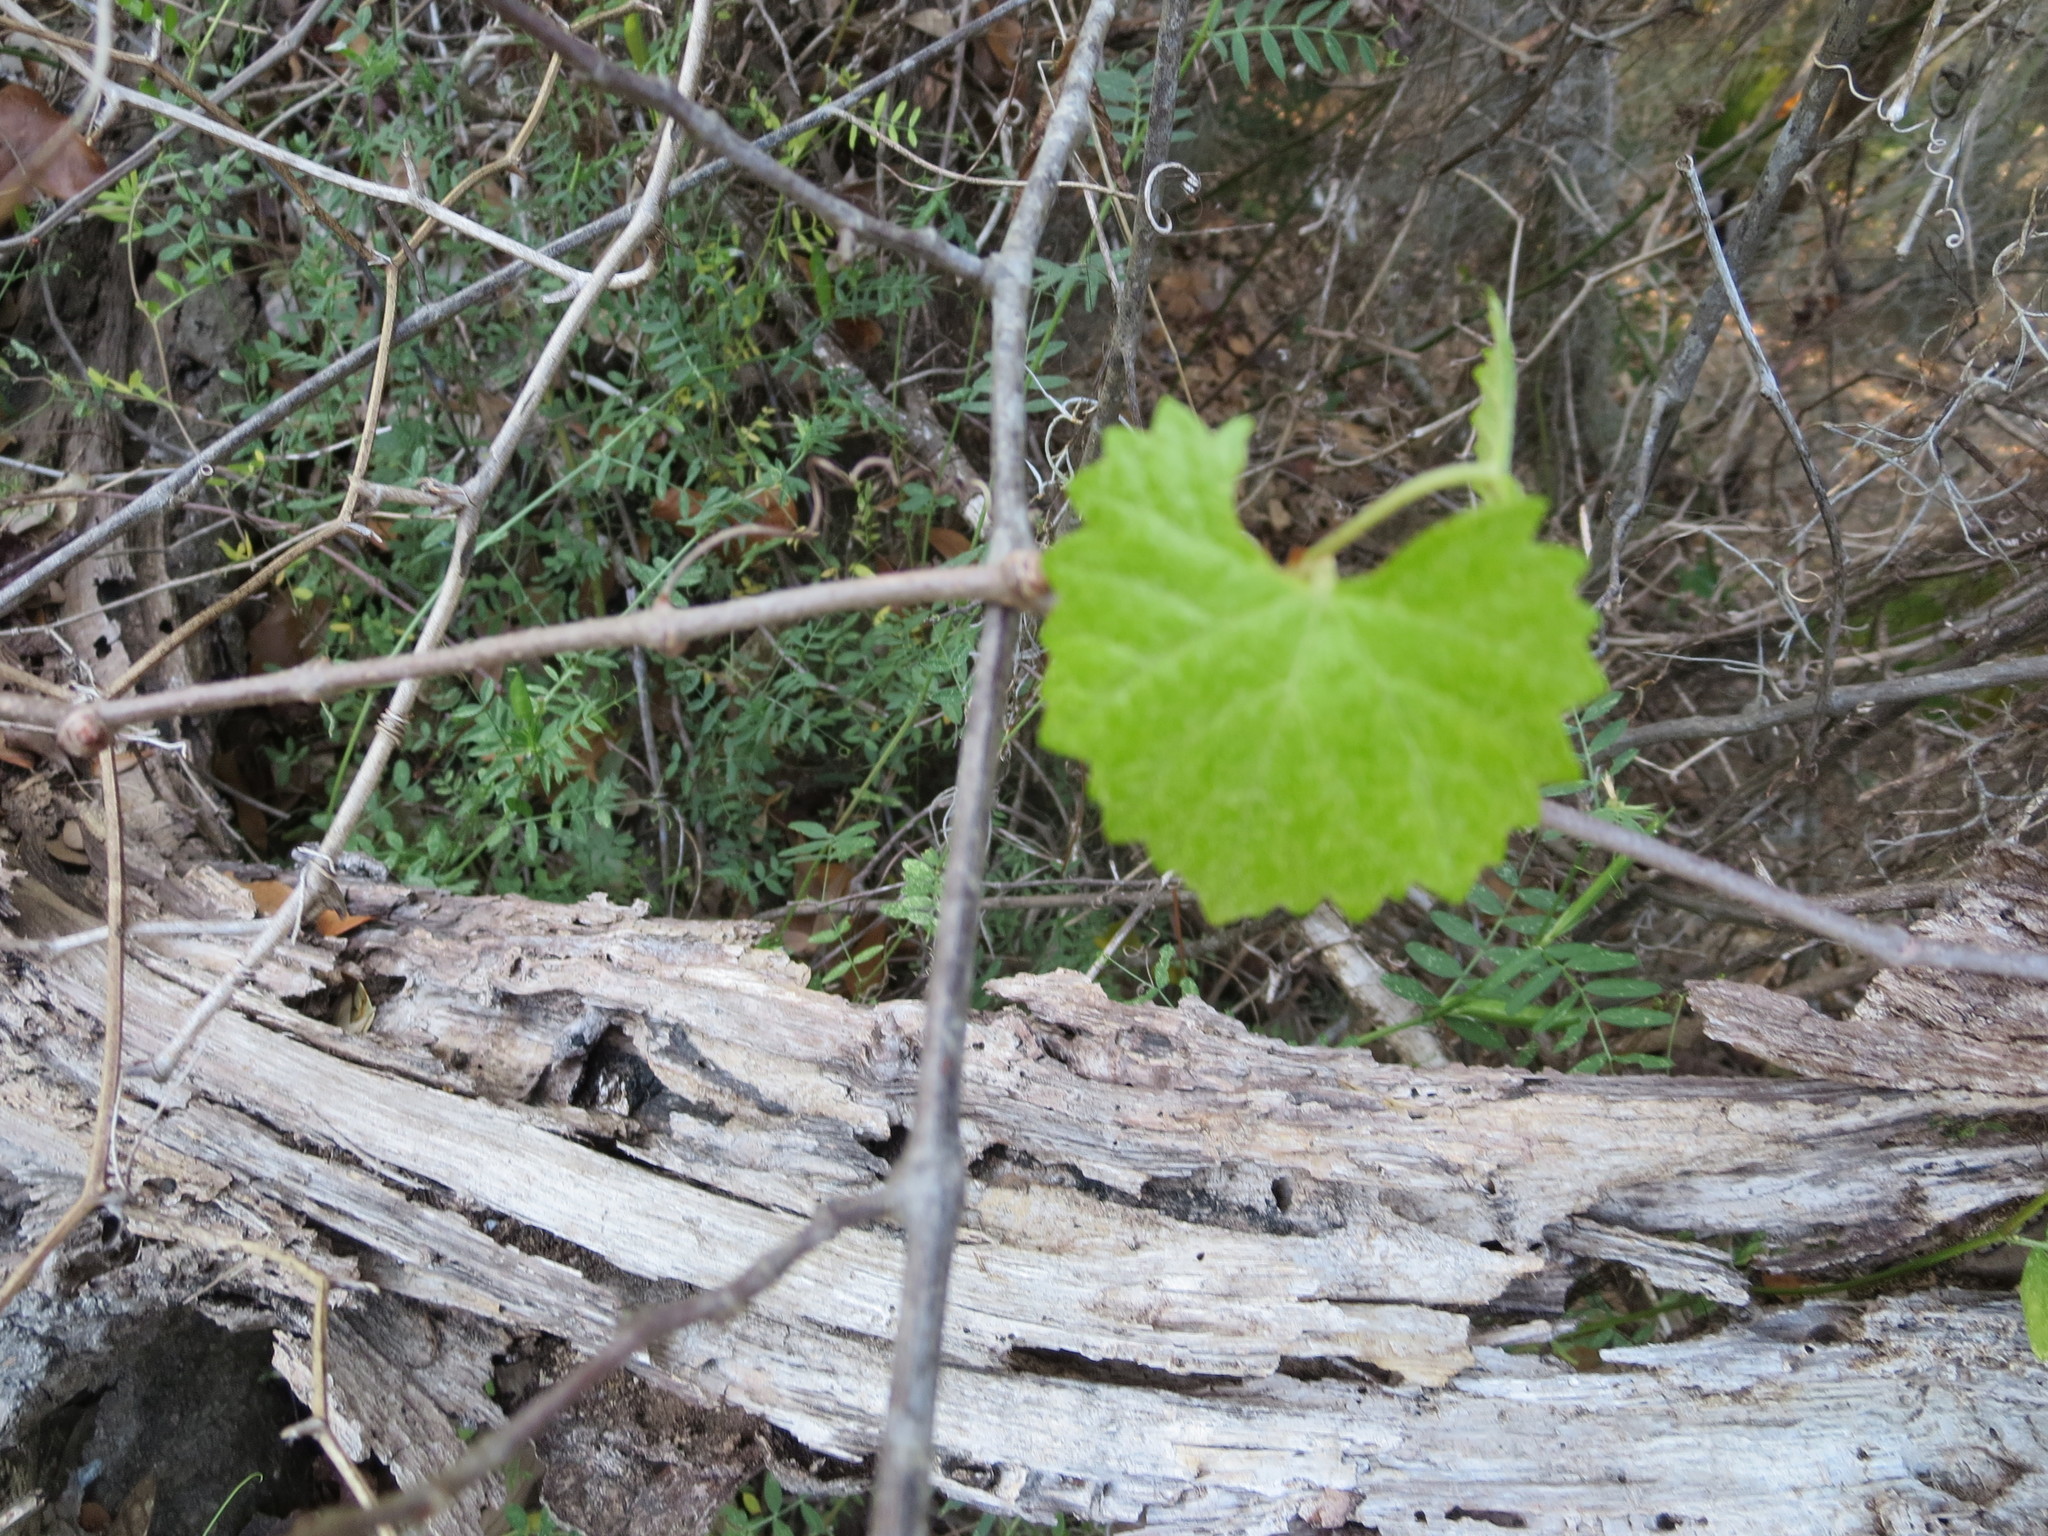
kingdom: Plantae
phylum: Tracheophyta
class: Magnoliopsida
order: Vitales
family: Vitaceae
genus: Vitis
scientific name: Vitis rotundifolia
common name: Muscadine grape
